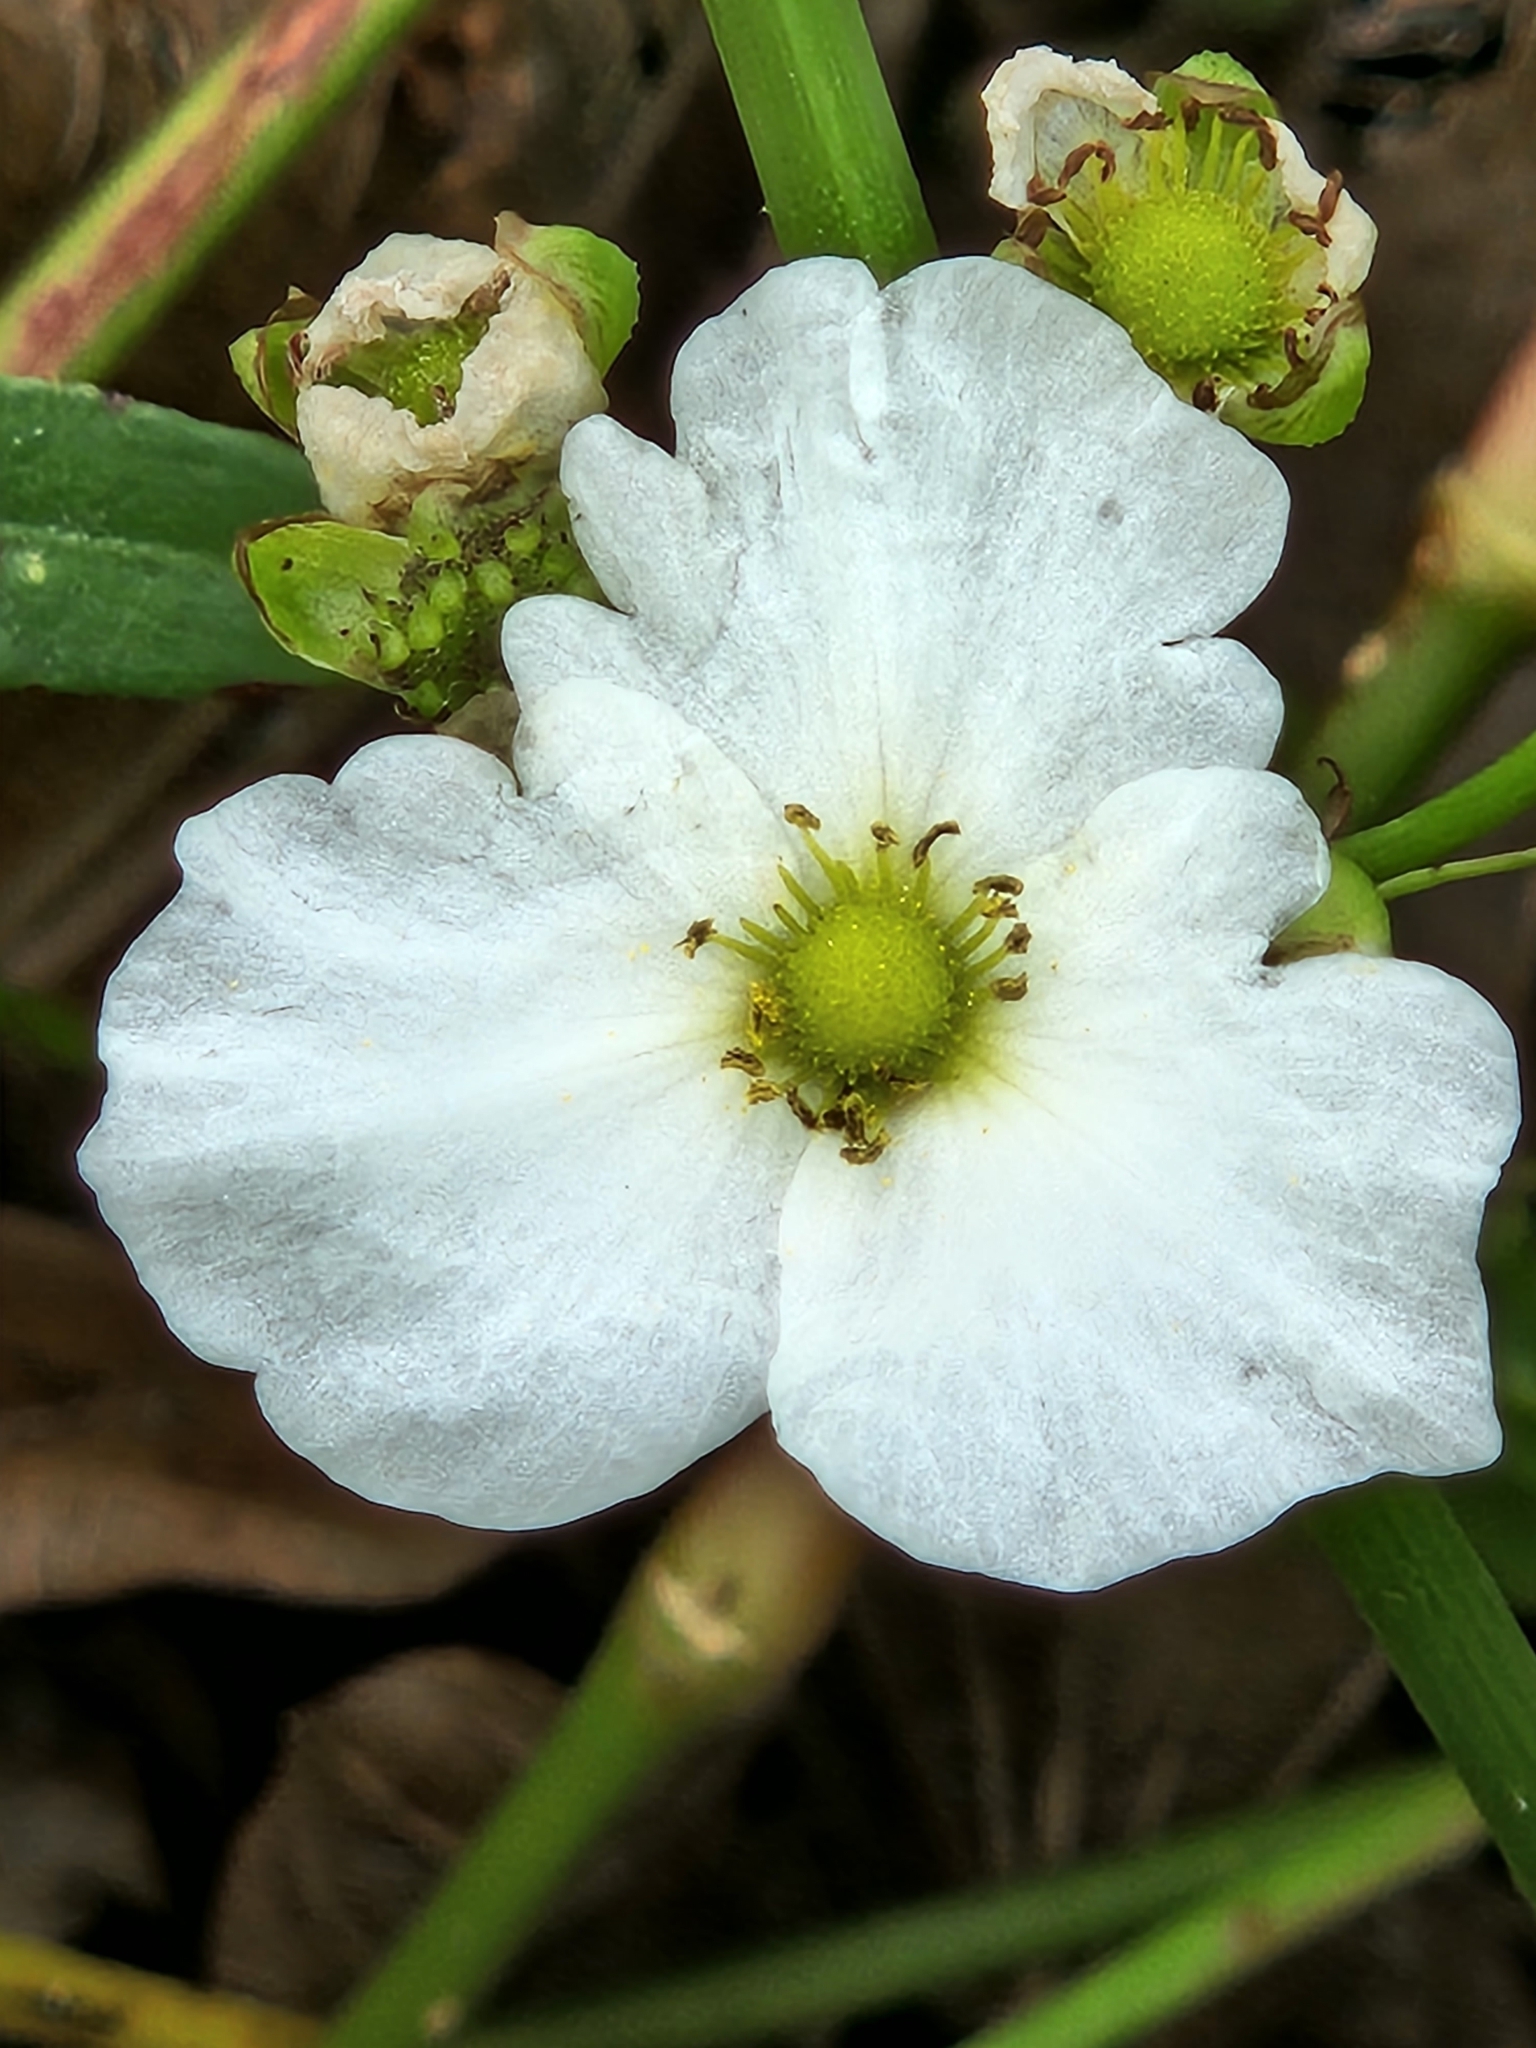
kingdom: Plantae
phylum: Tracheophyta
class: Liliopsida
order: Alismatales
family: Alismataceae
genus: Aquarius
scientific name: Aquarius cordifolius
